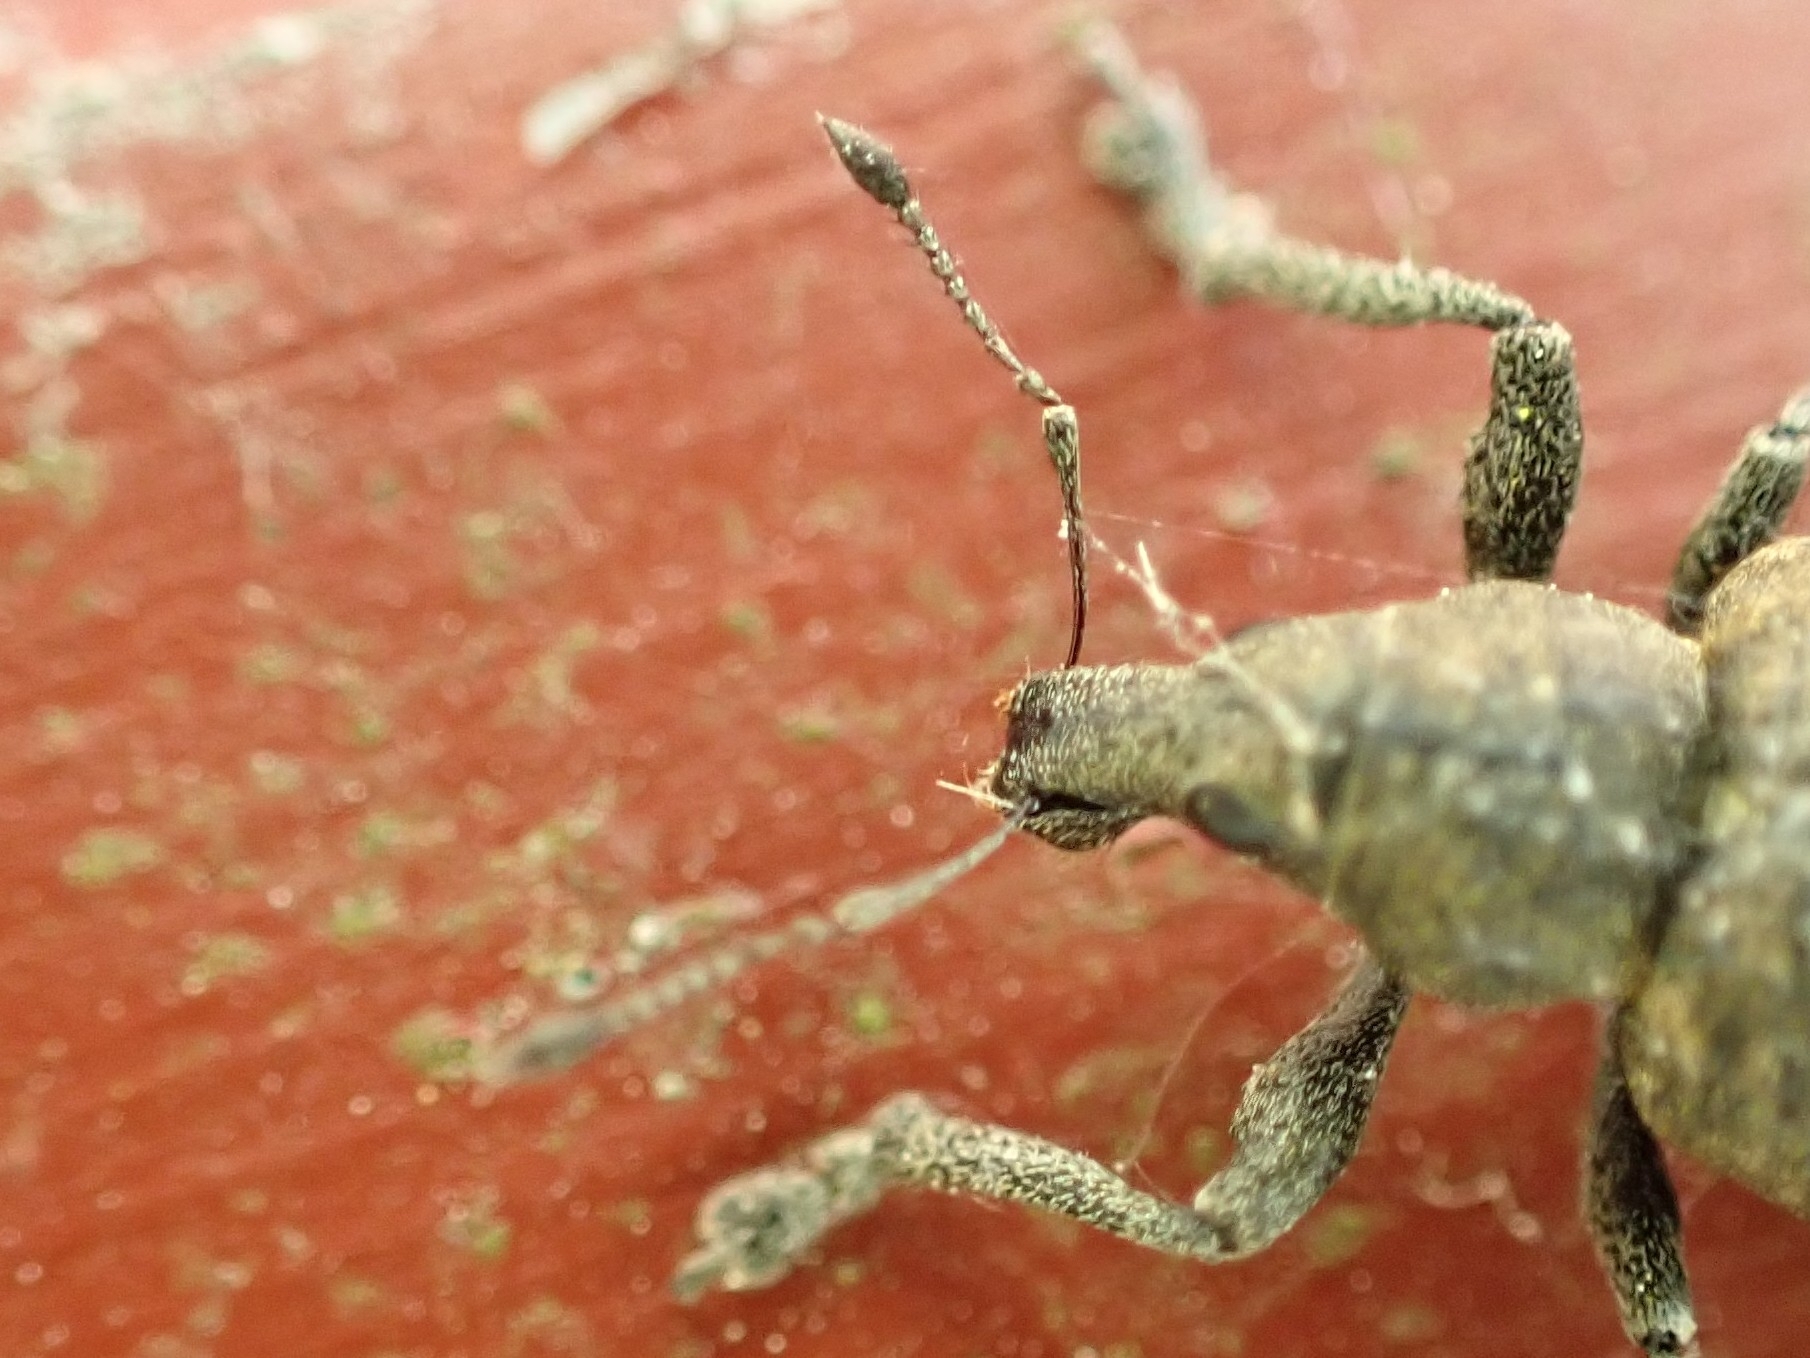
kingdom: Animalia
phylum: Arthropoda
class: Insecta
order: Coleoptera
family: Curculionidae
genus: Liophloeus
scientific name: Liophloeus tessulatus
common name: Weevil
